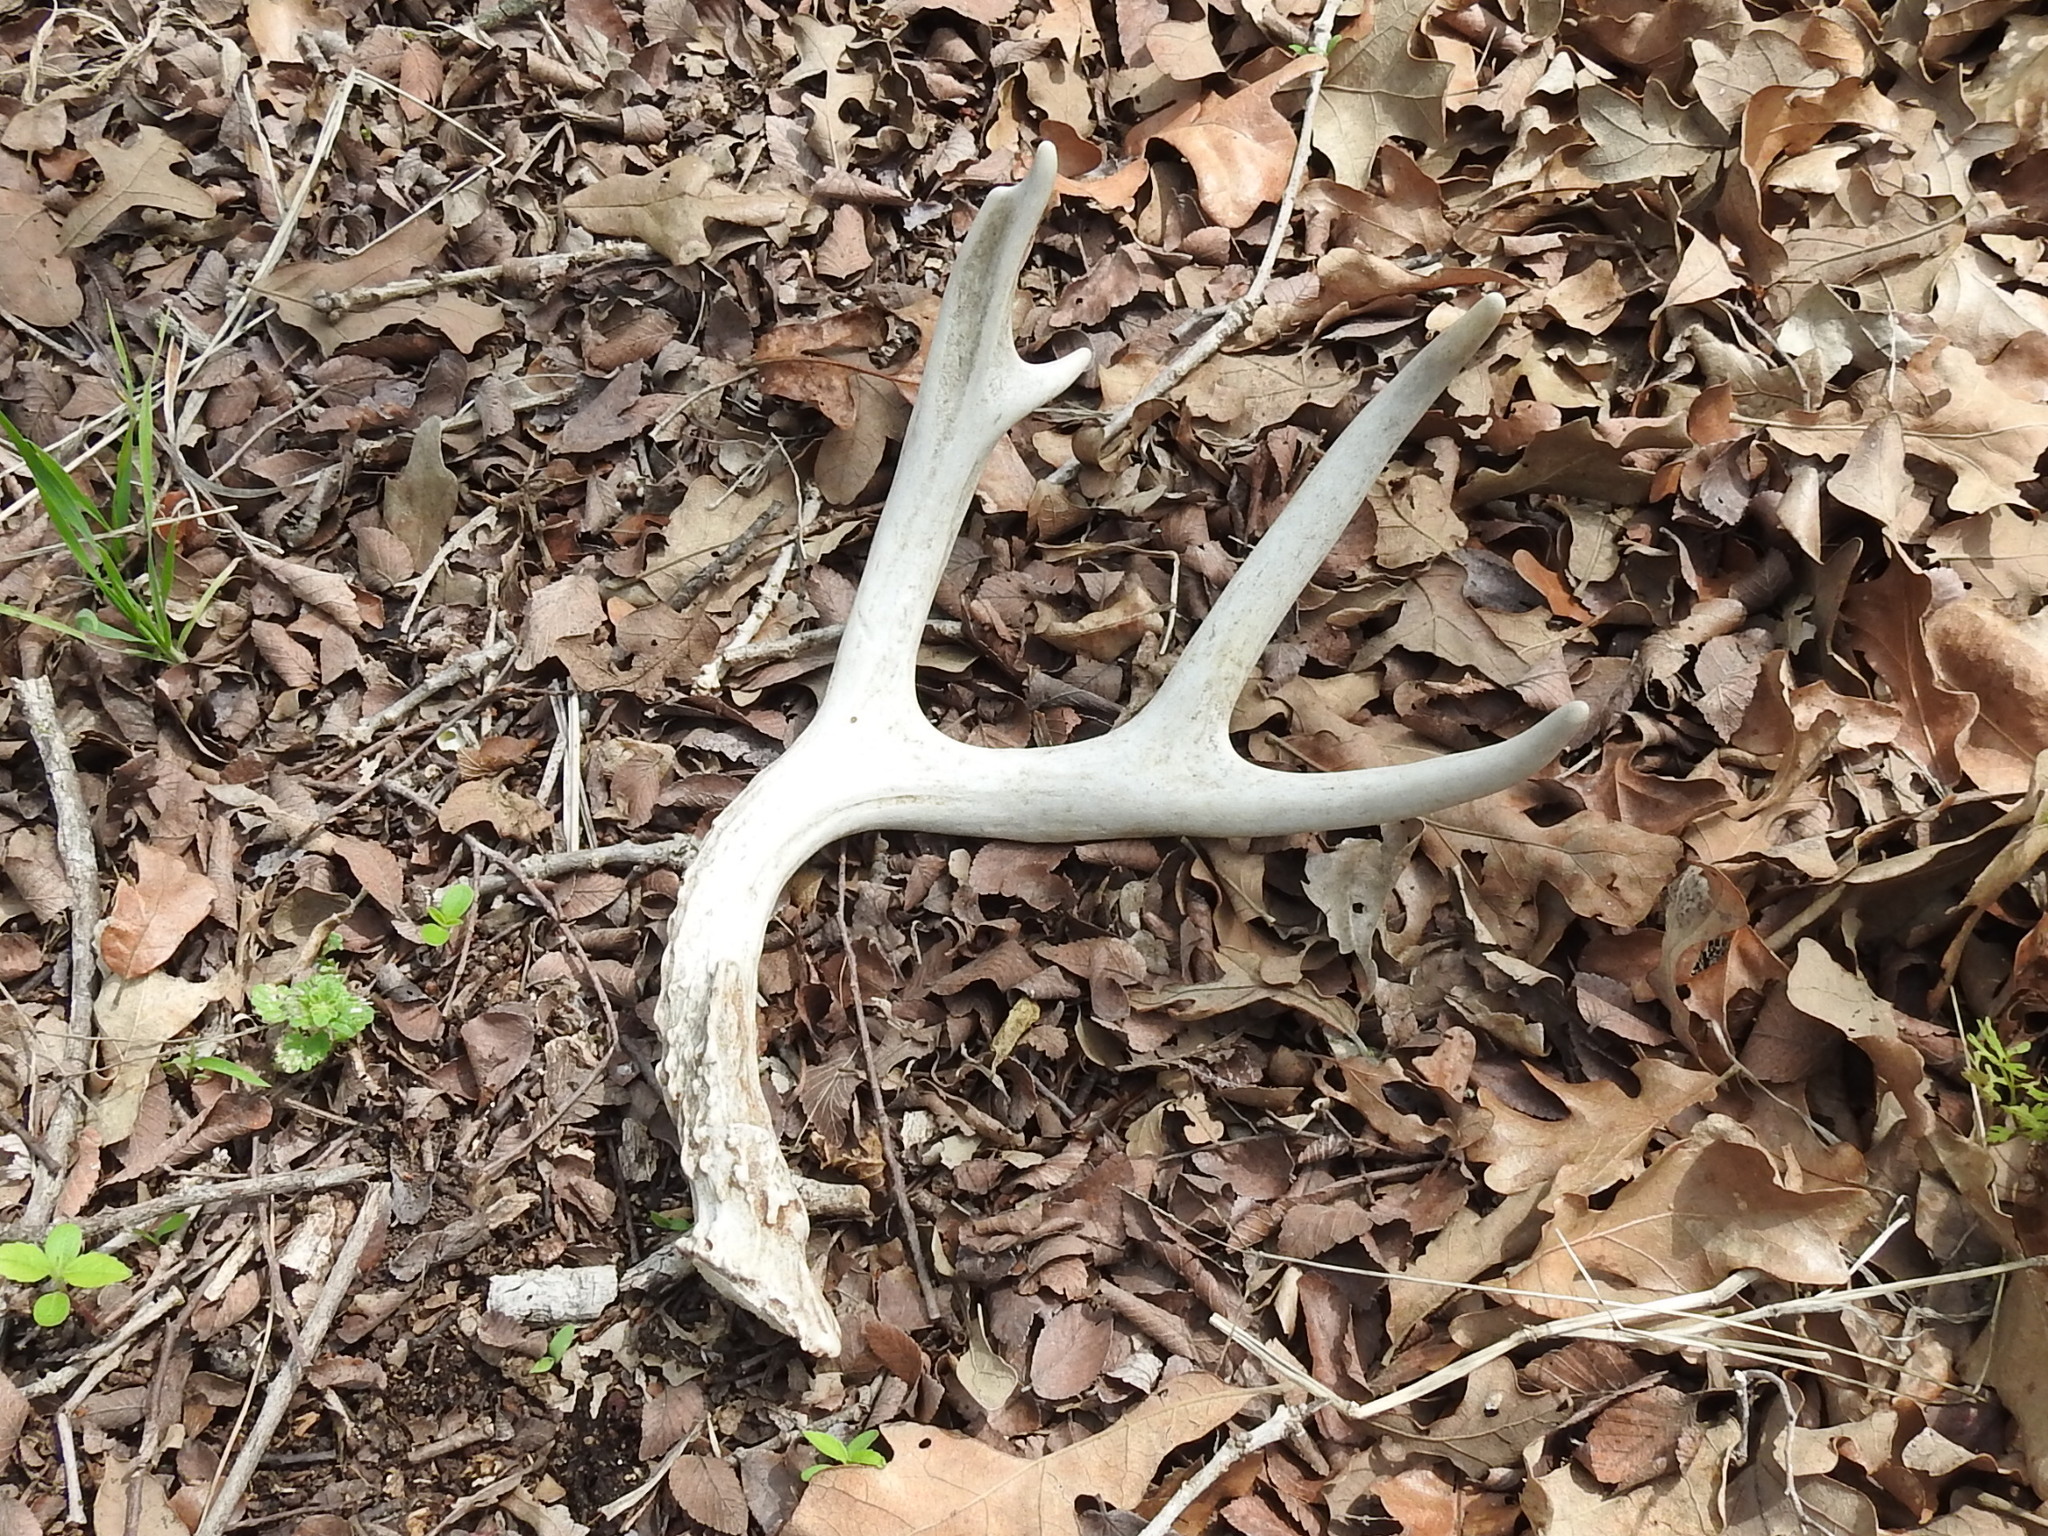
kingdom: Animalia
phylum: Chordata
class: Mammalia
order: Artiodactyla
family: Cervidae
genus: Odocoileus
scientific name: Odocoileus virginianus
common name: White-tailed deer
